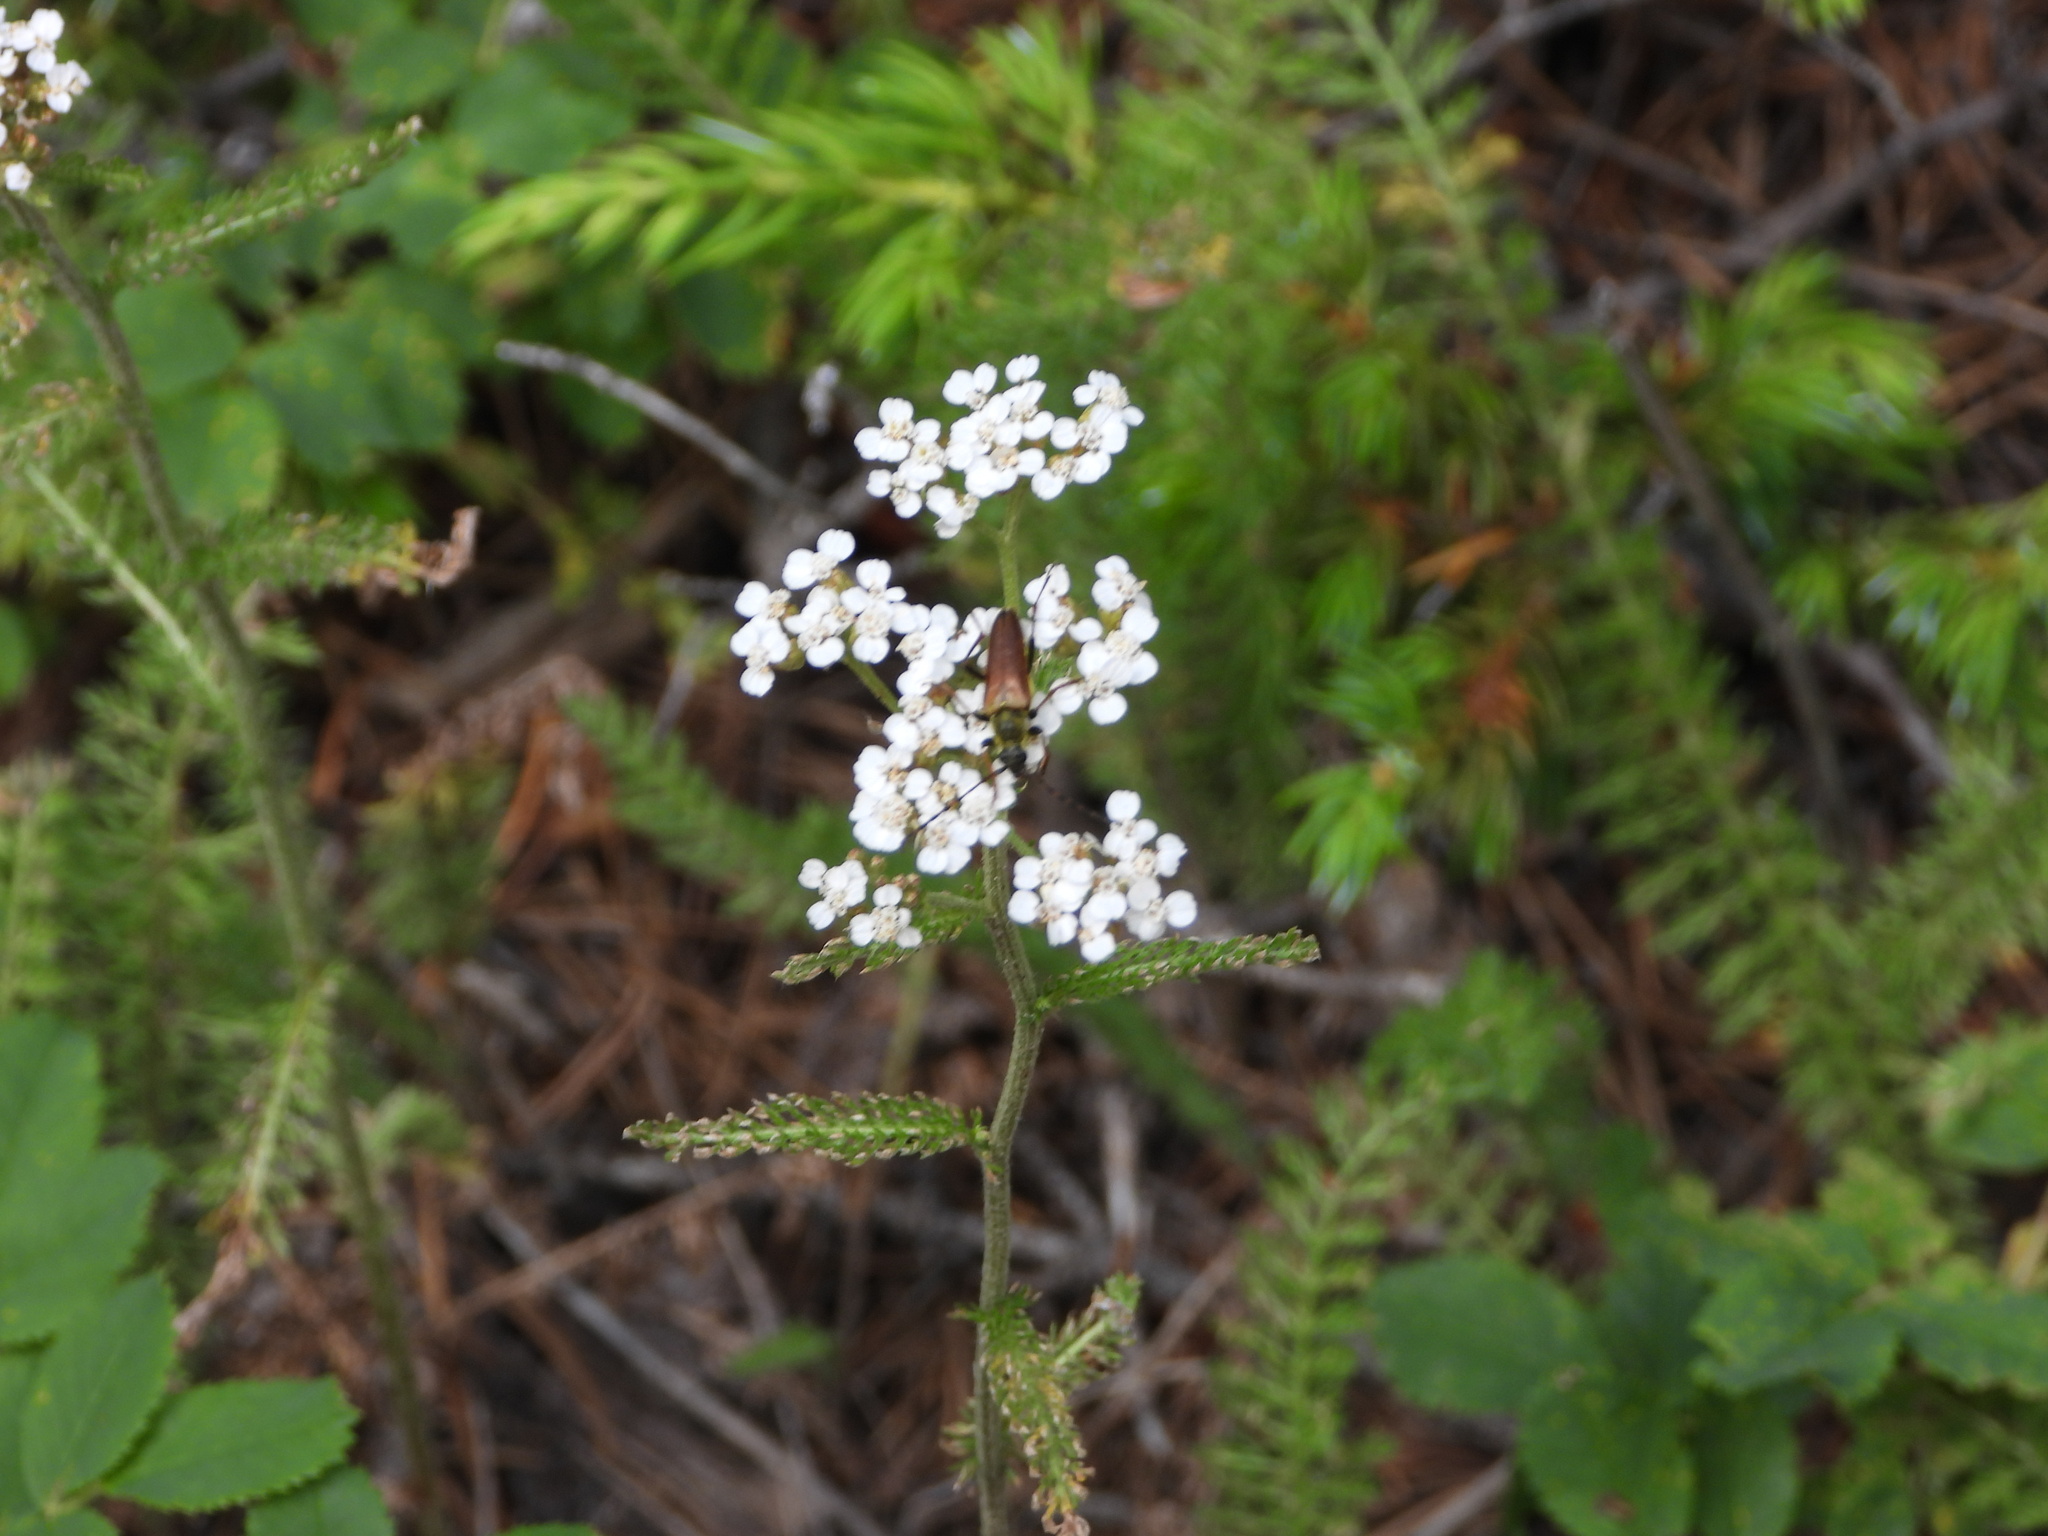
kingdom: Plantae
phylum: Tracheophyta
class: Magnoliopsida
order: Asterales
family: Asteraceae
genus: Achillea
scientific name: Achillea millefolium
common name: Yarrow
